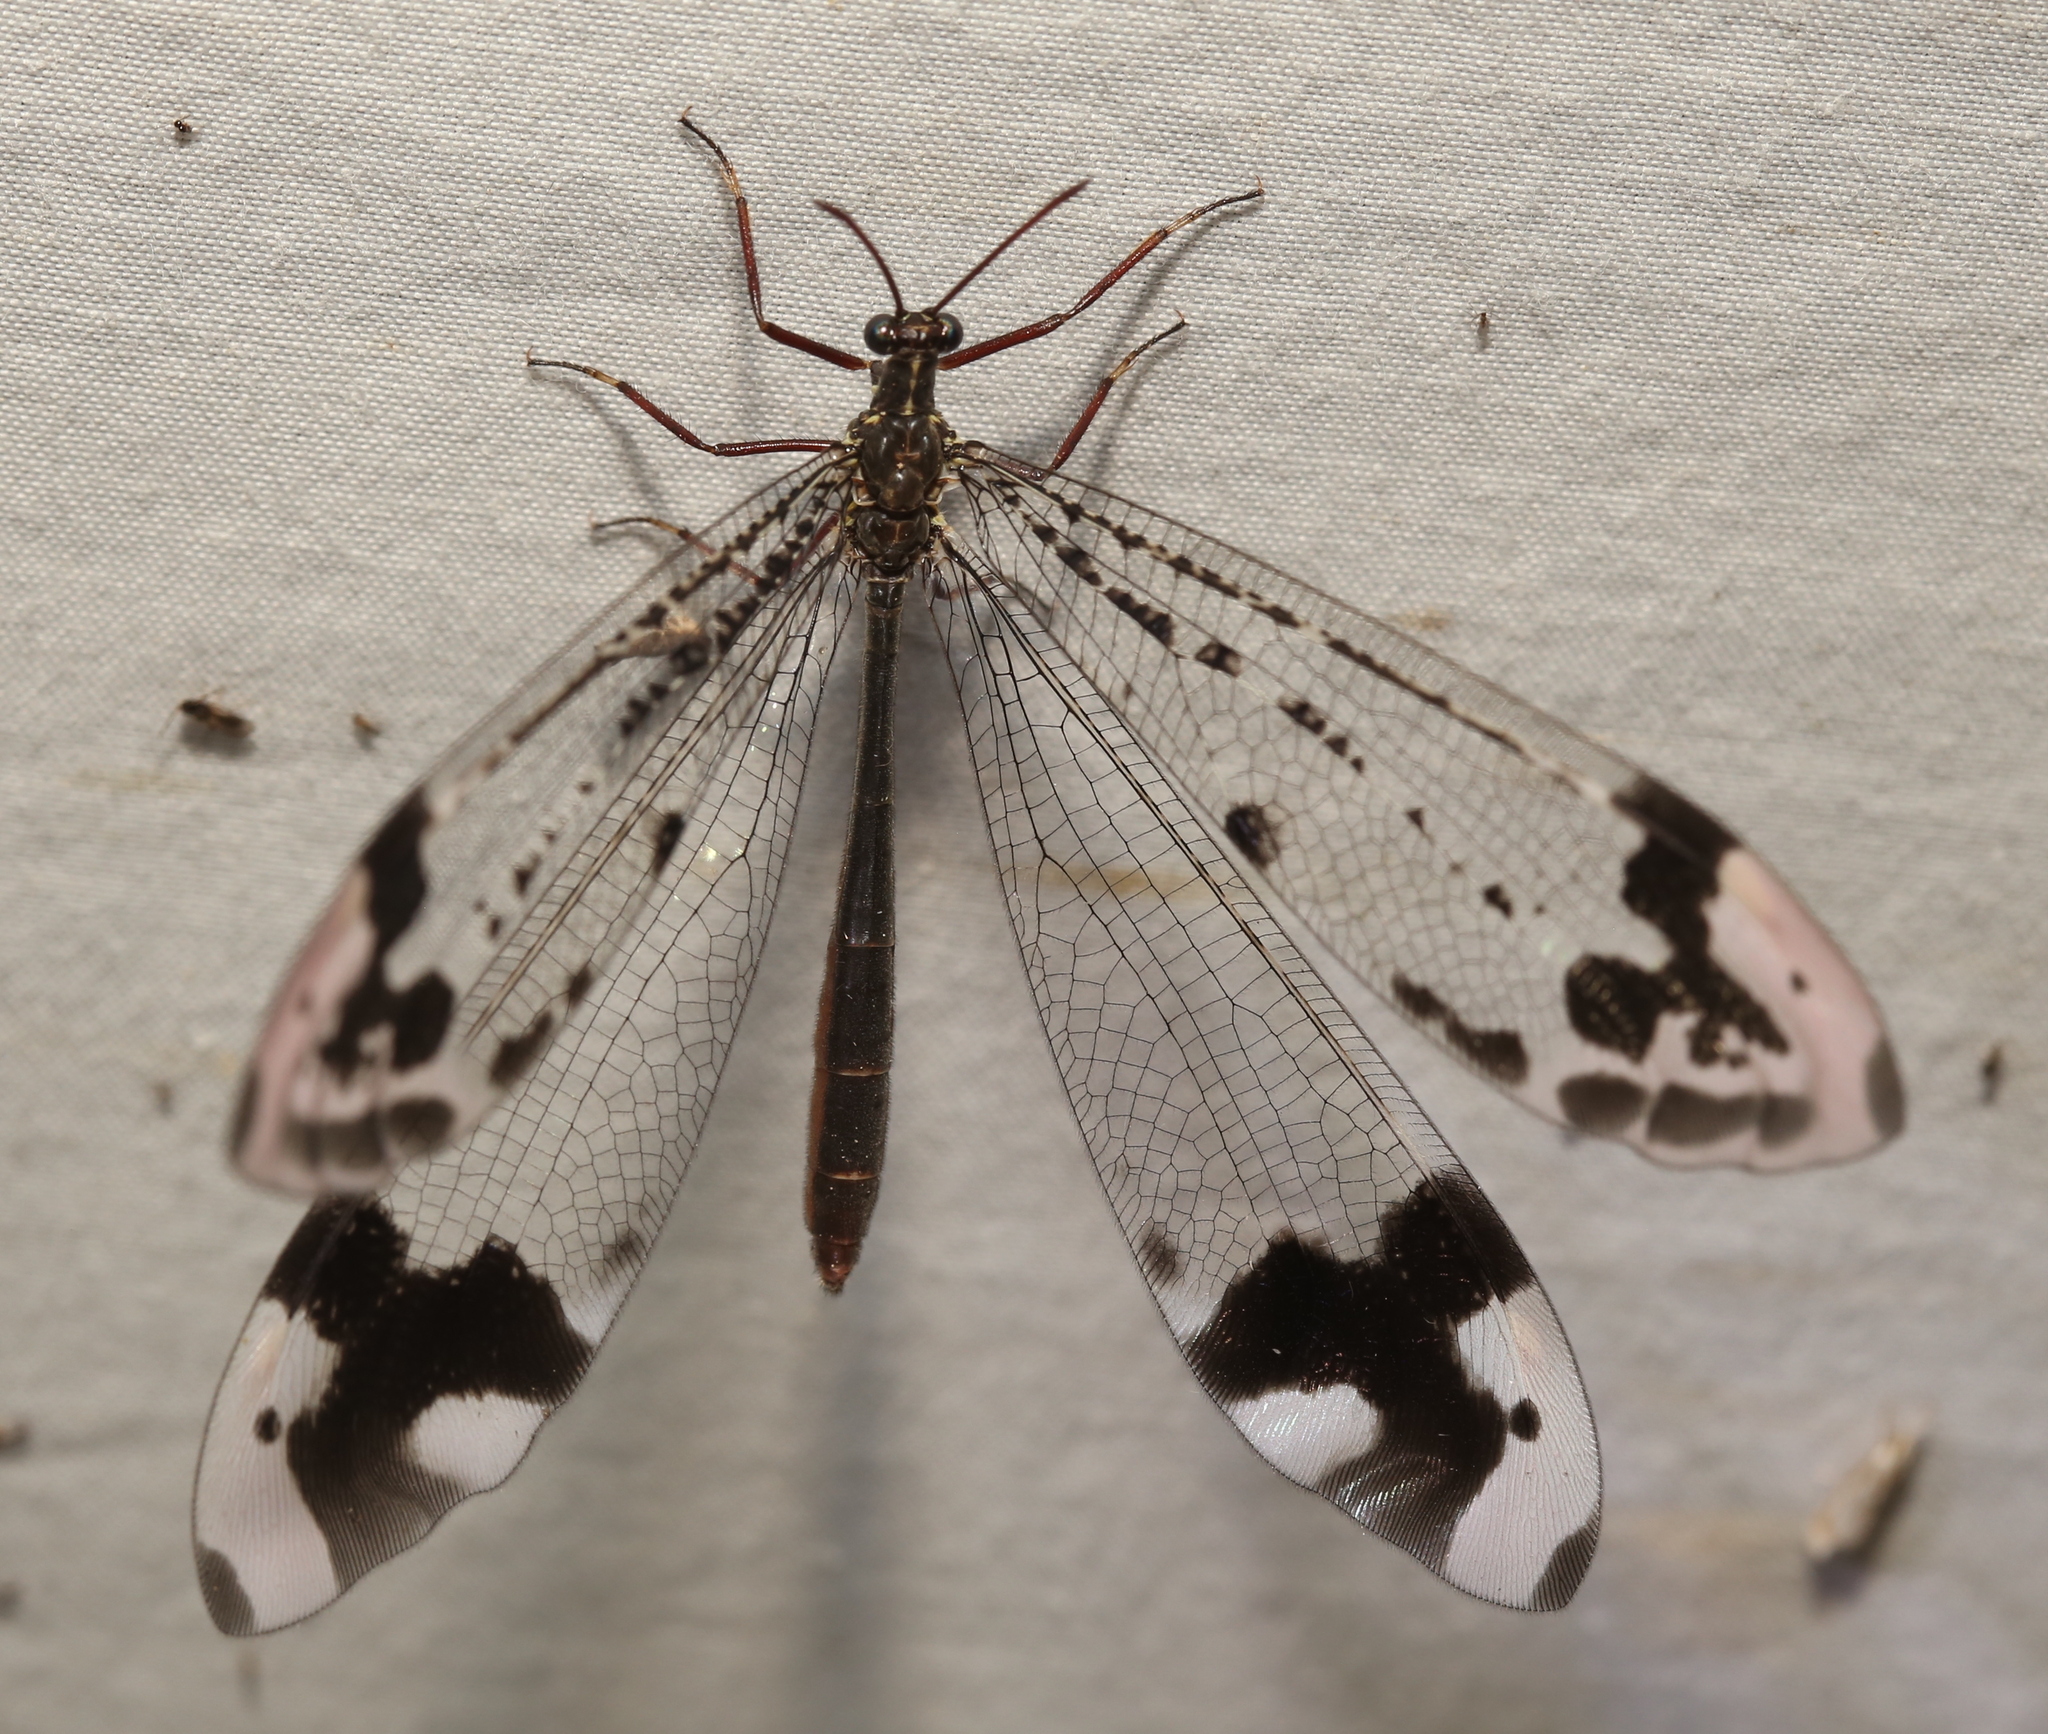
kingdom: Animalia
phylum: Arthropoda
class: Insecta
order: Neuroptera
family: Myrmeleontidae
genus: Glenurus
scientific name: Glenurus gratus
